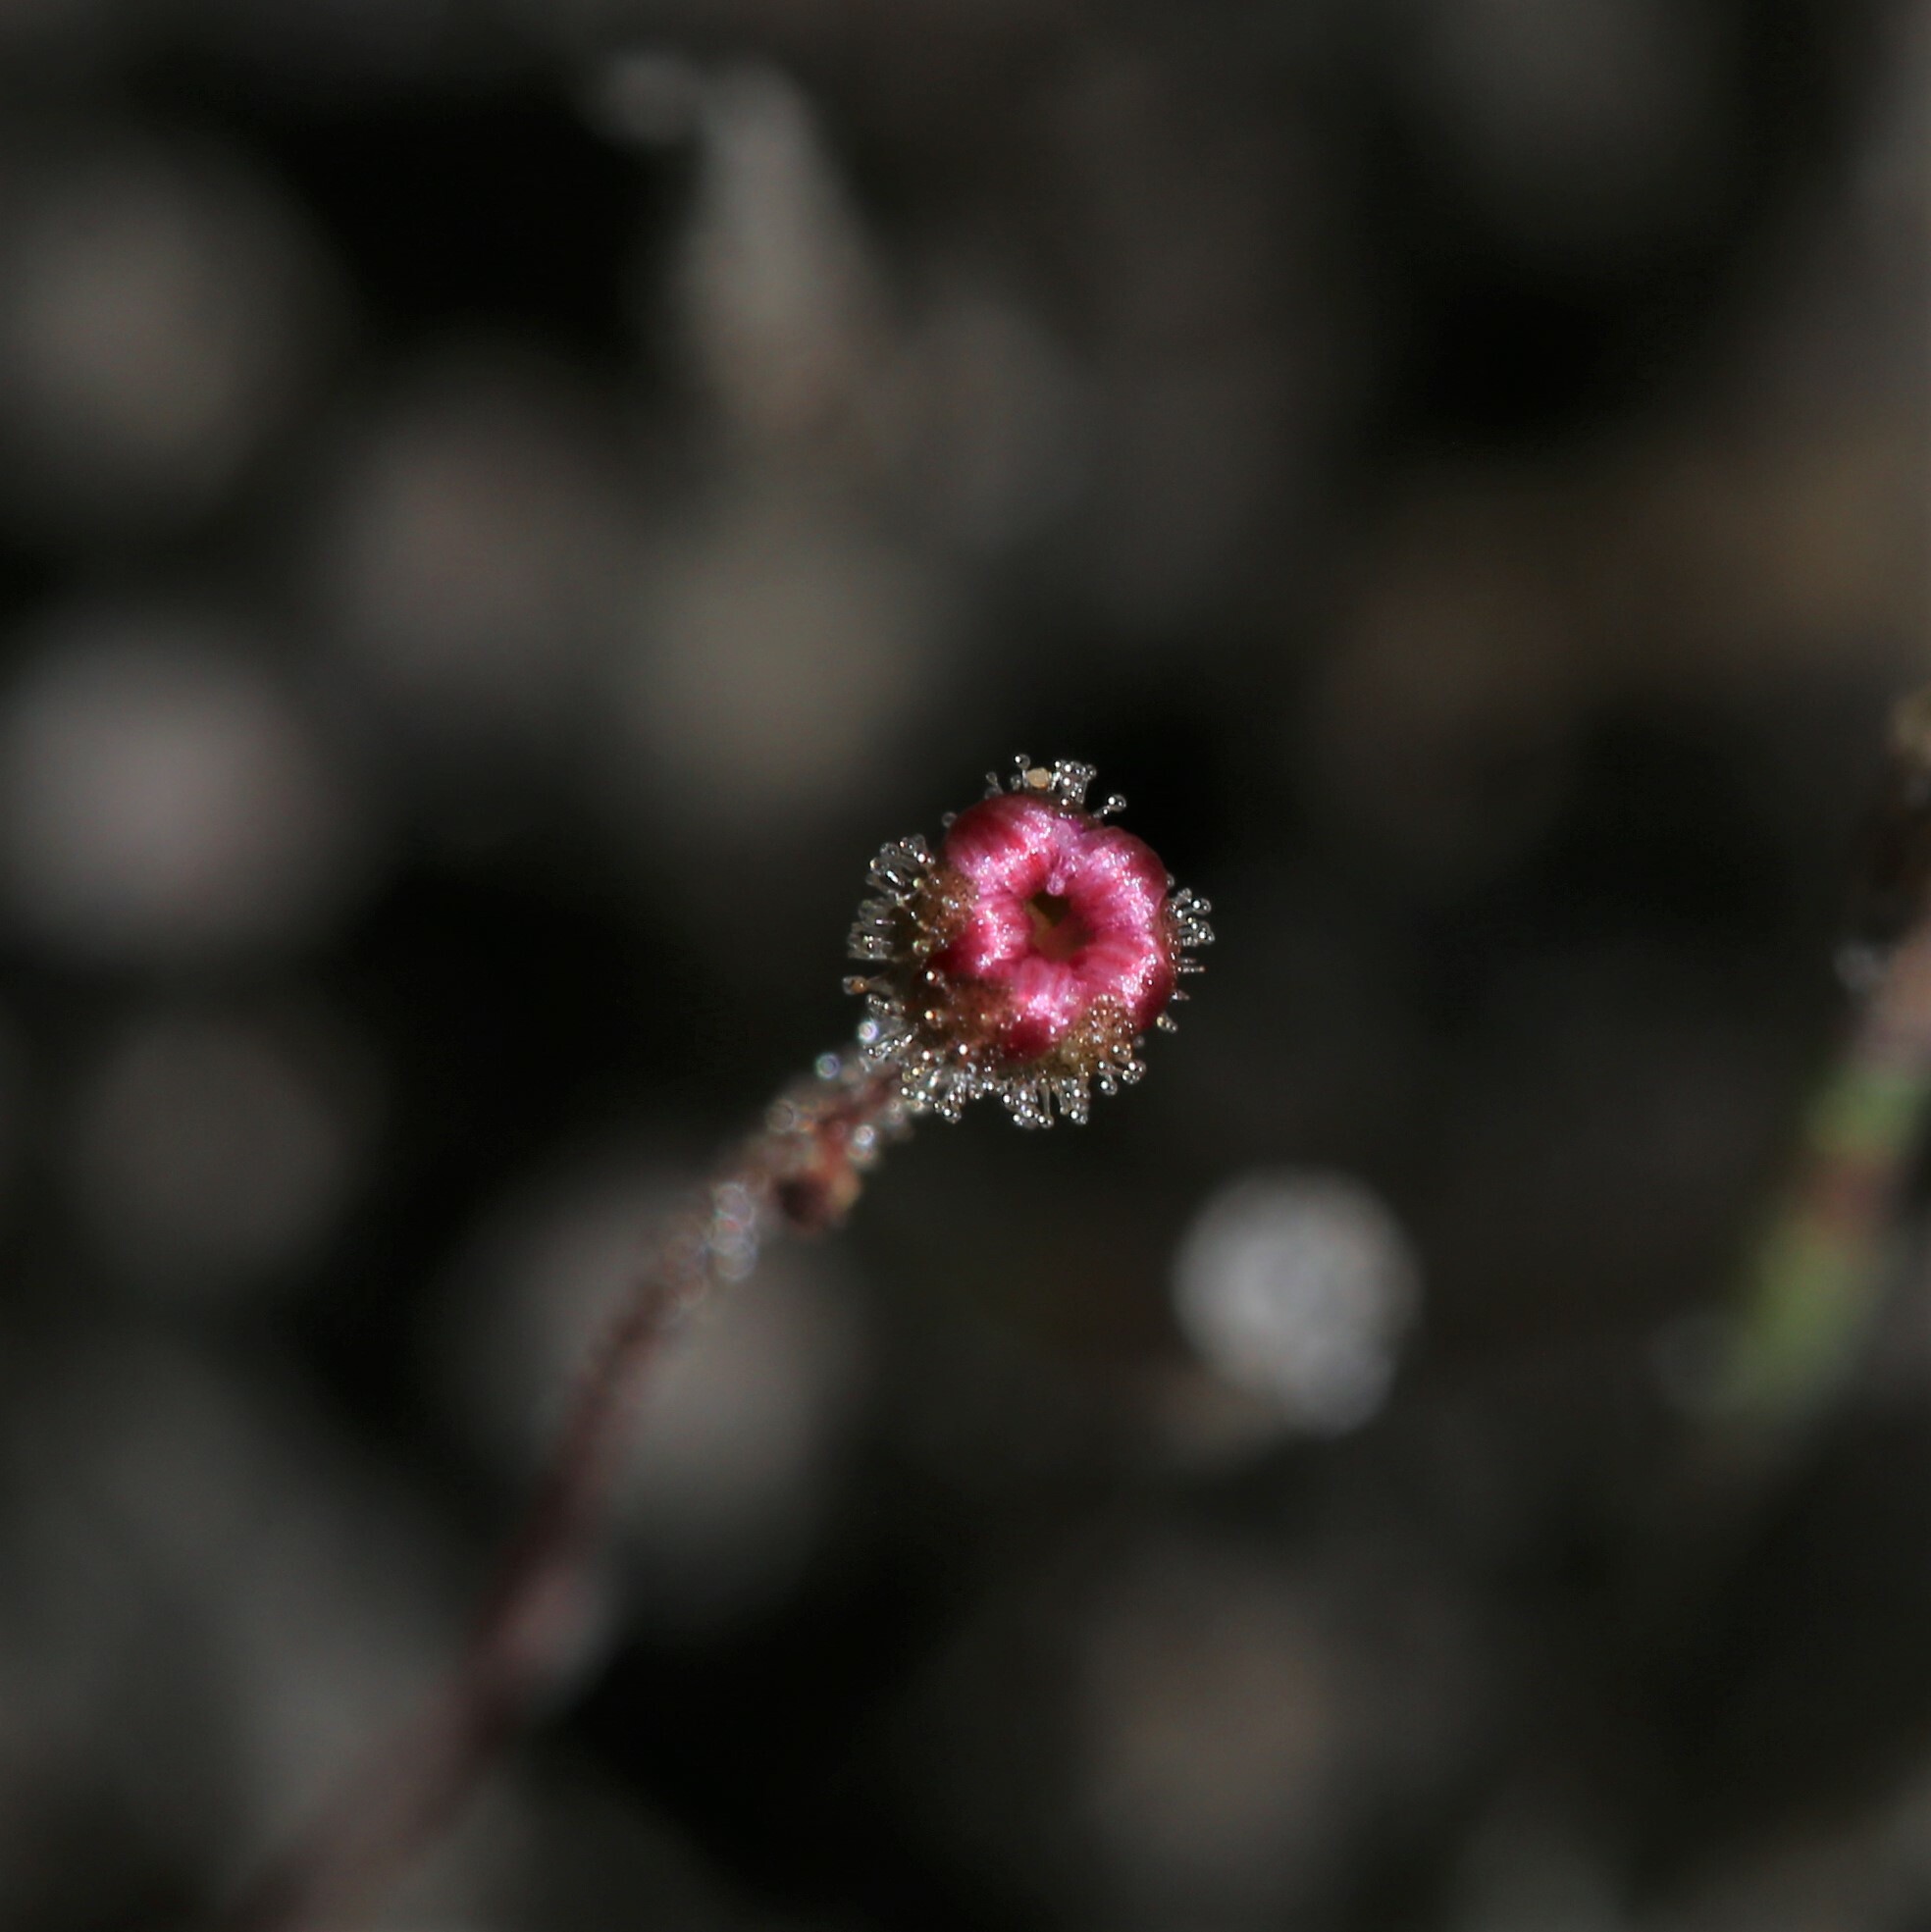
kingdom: Plantae
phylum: Tracheophyta
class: Magnoliopsida
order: Caryophyllales
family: Droseraceae
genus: Drosera
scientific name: Drosera pulchella
